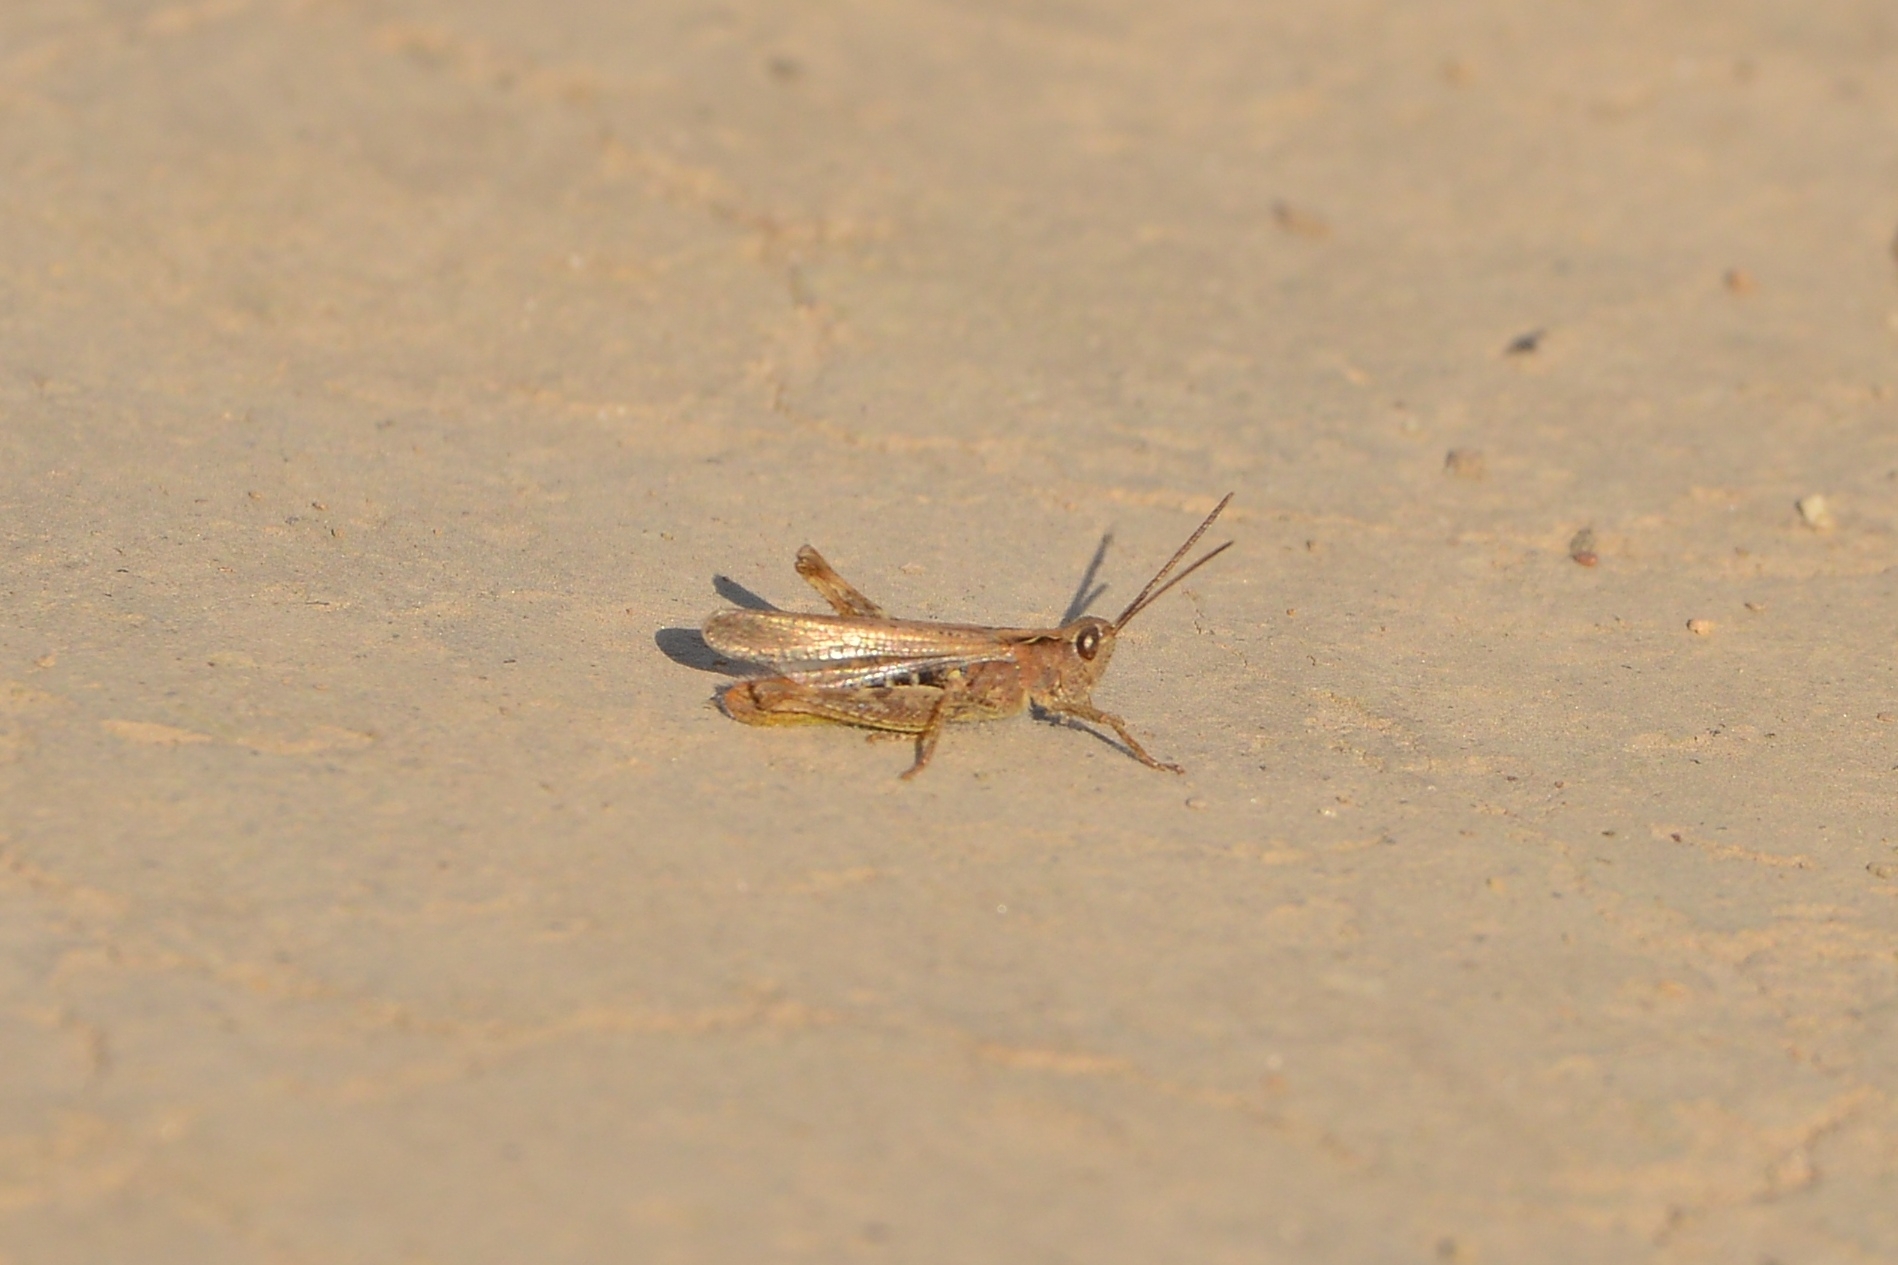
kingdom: Animalia
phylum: Arthropoda
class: Insecta
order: Orthoptera
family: Acrididae
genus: Chorthippus
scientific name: Chorthippus biguttulus
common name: Bow-winged grasshopper
